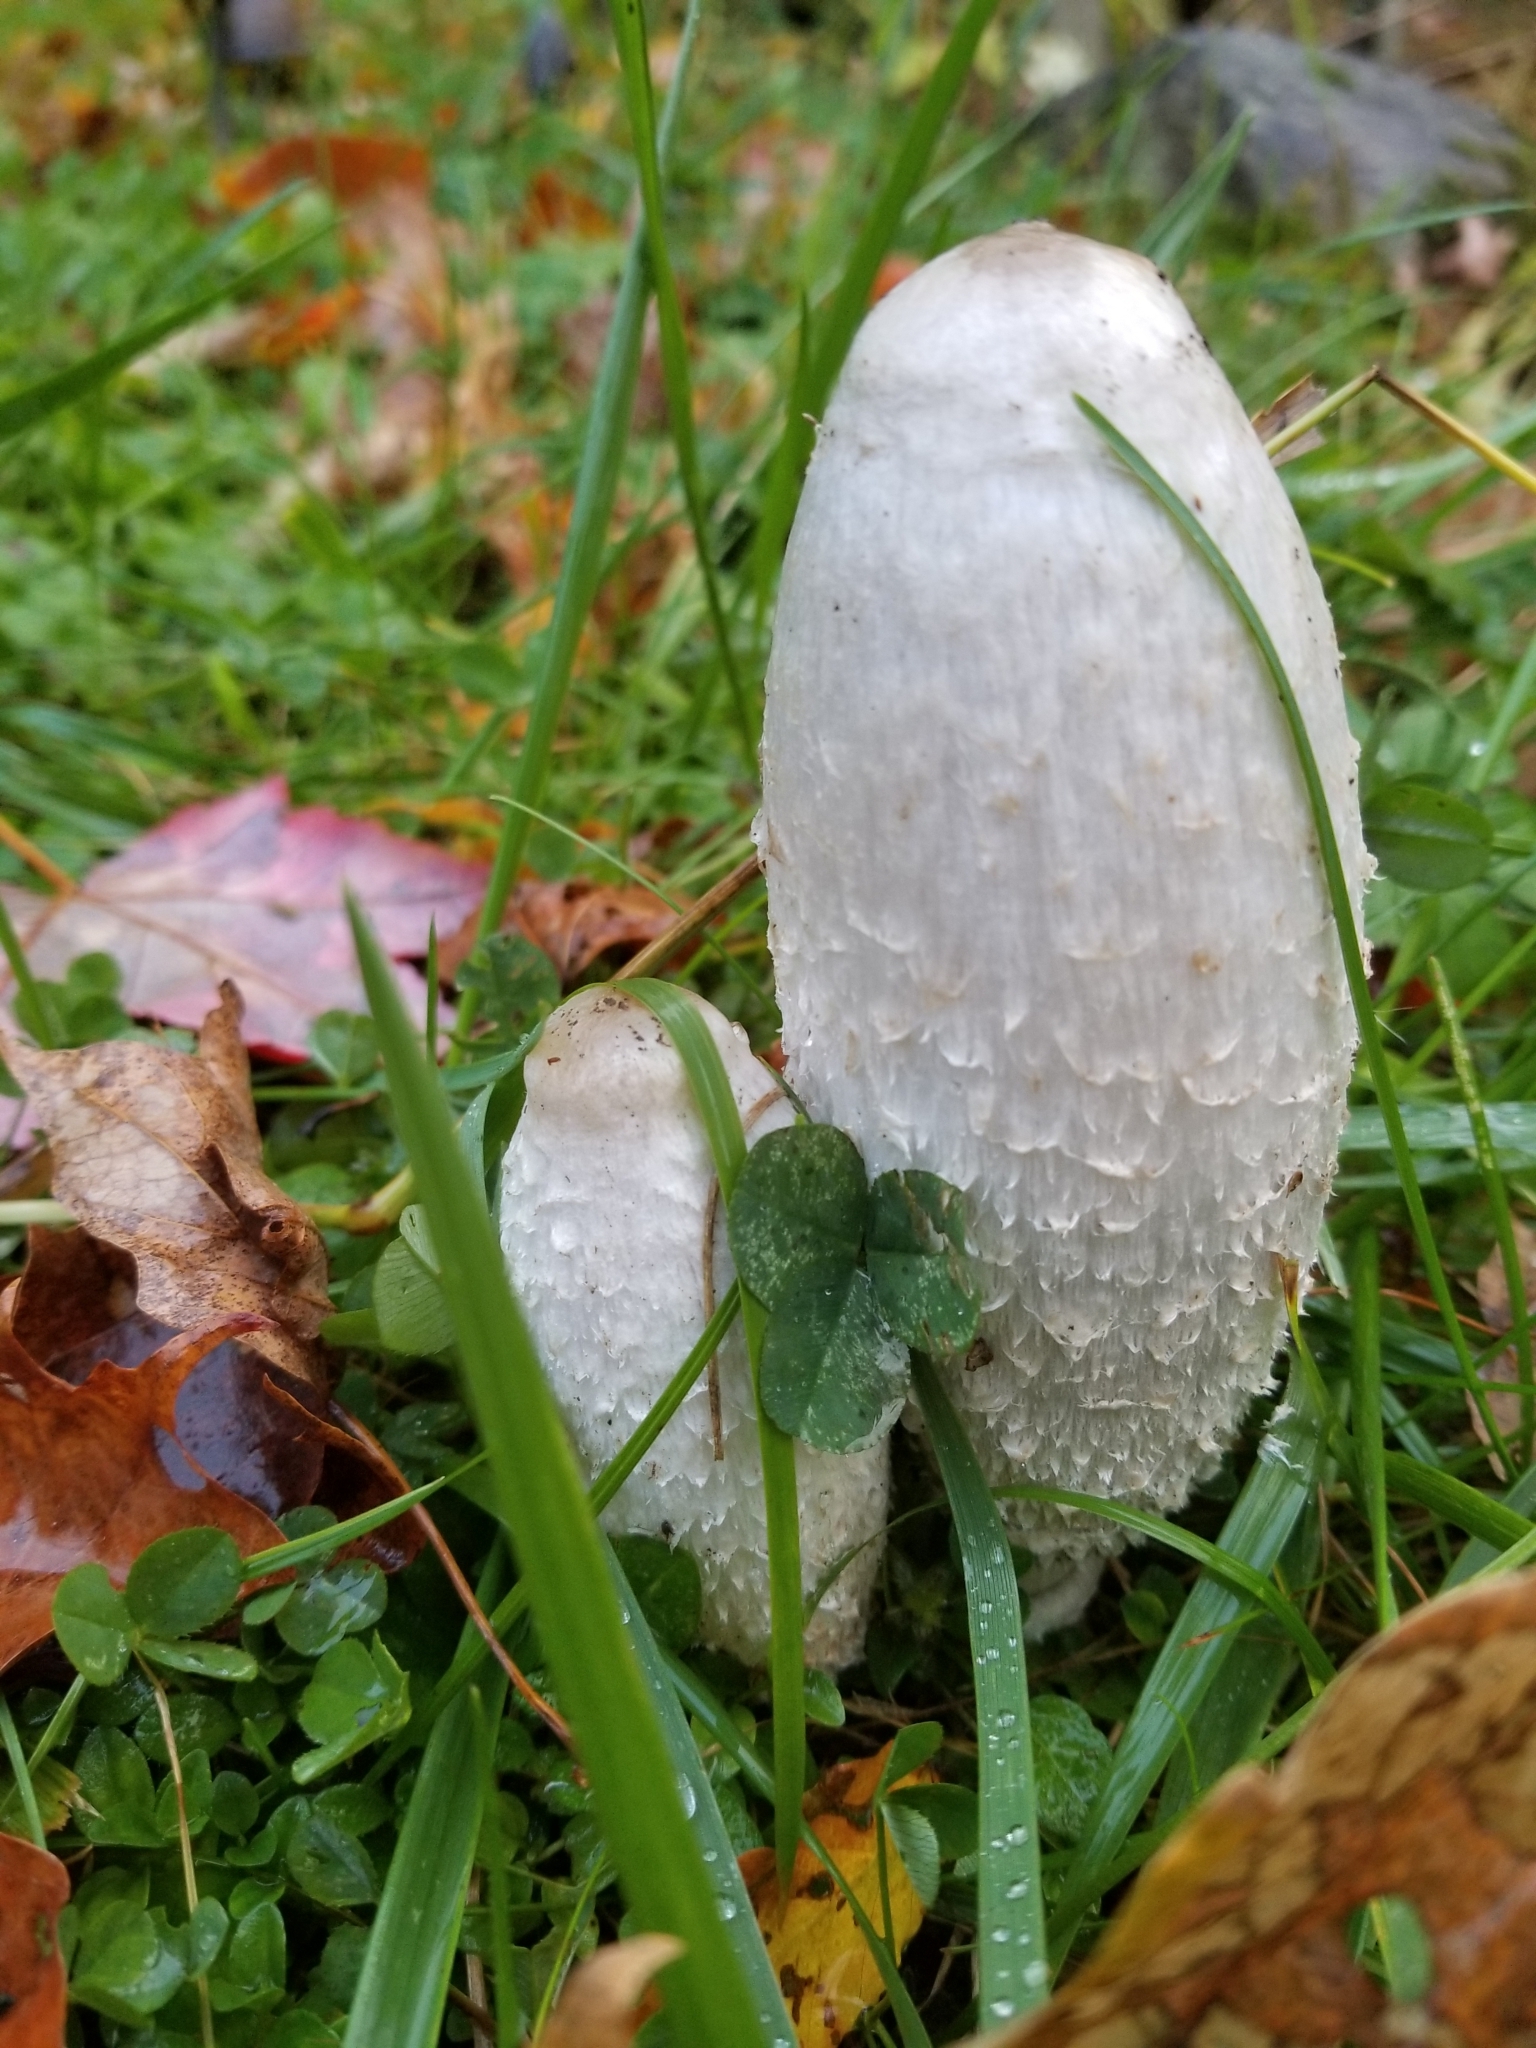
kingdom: Fungi
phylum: Basidiomycota
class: Agaricomycetes
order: Agaricales
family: Agaricaceae
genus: Coprinus
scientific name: Coprinus comatus
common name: Lawyer's wig
